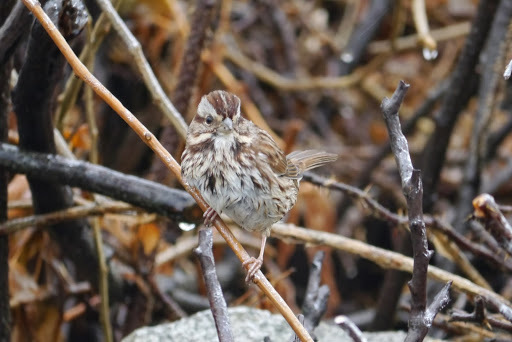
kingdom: Animalia
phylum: Chordata
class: Aves
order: Passeriformes
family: Passerellidae
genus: Melospiza
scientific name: Melospiza melodia
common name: Song sparrow
